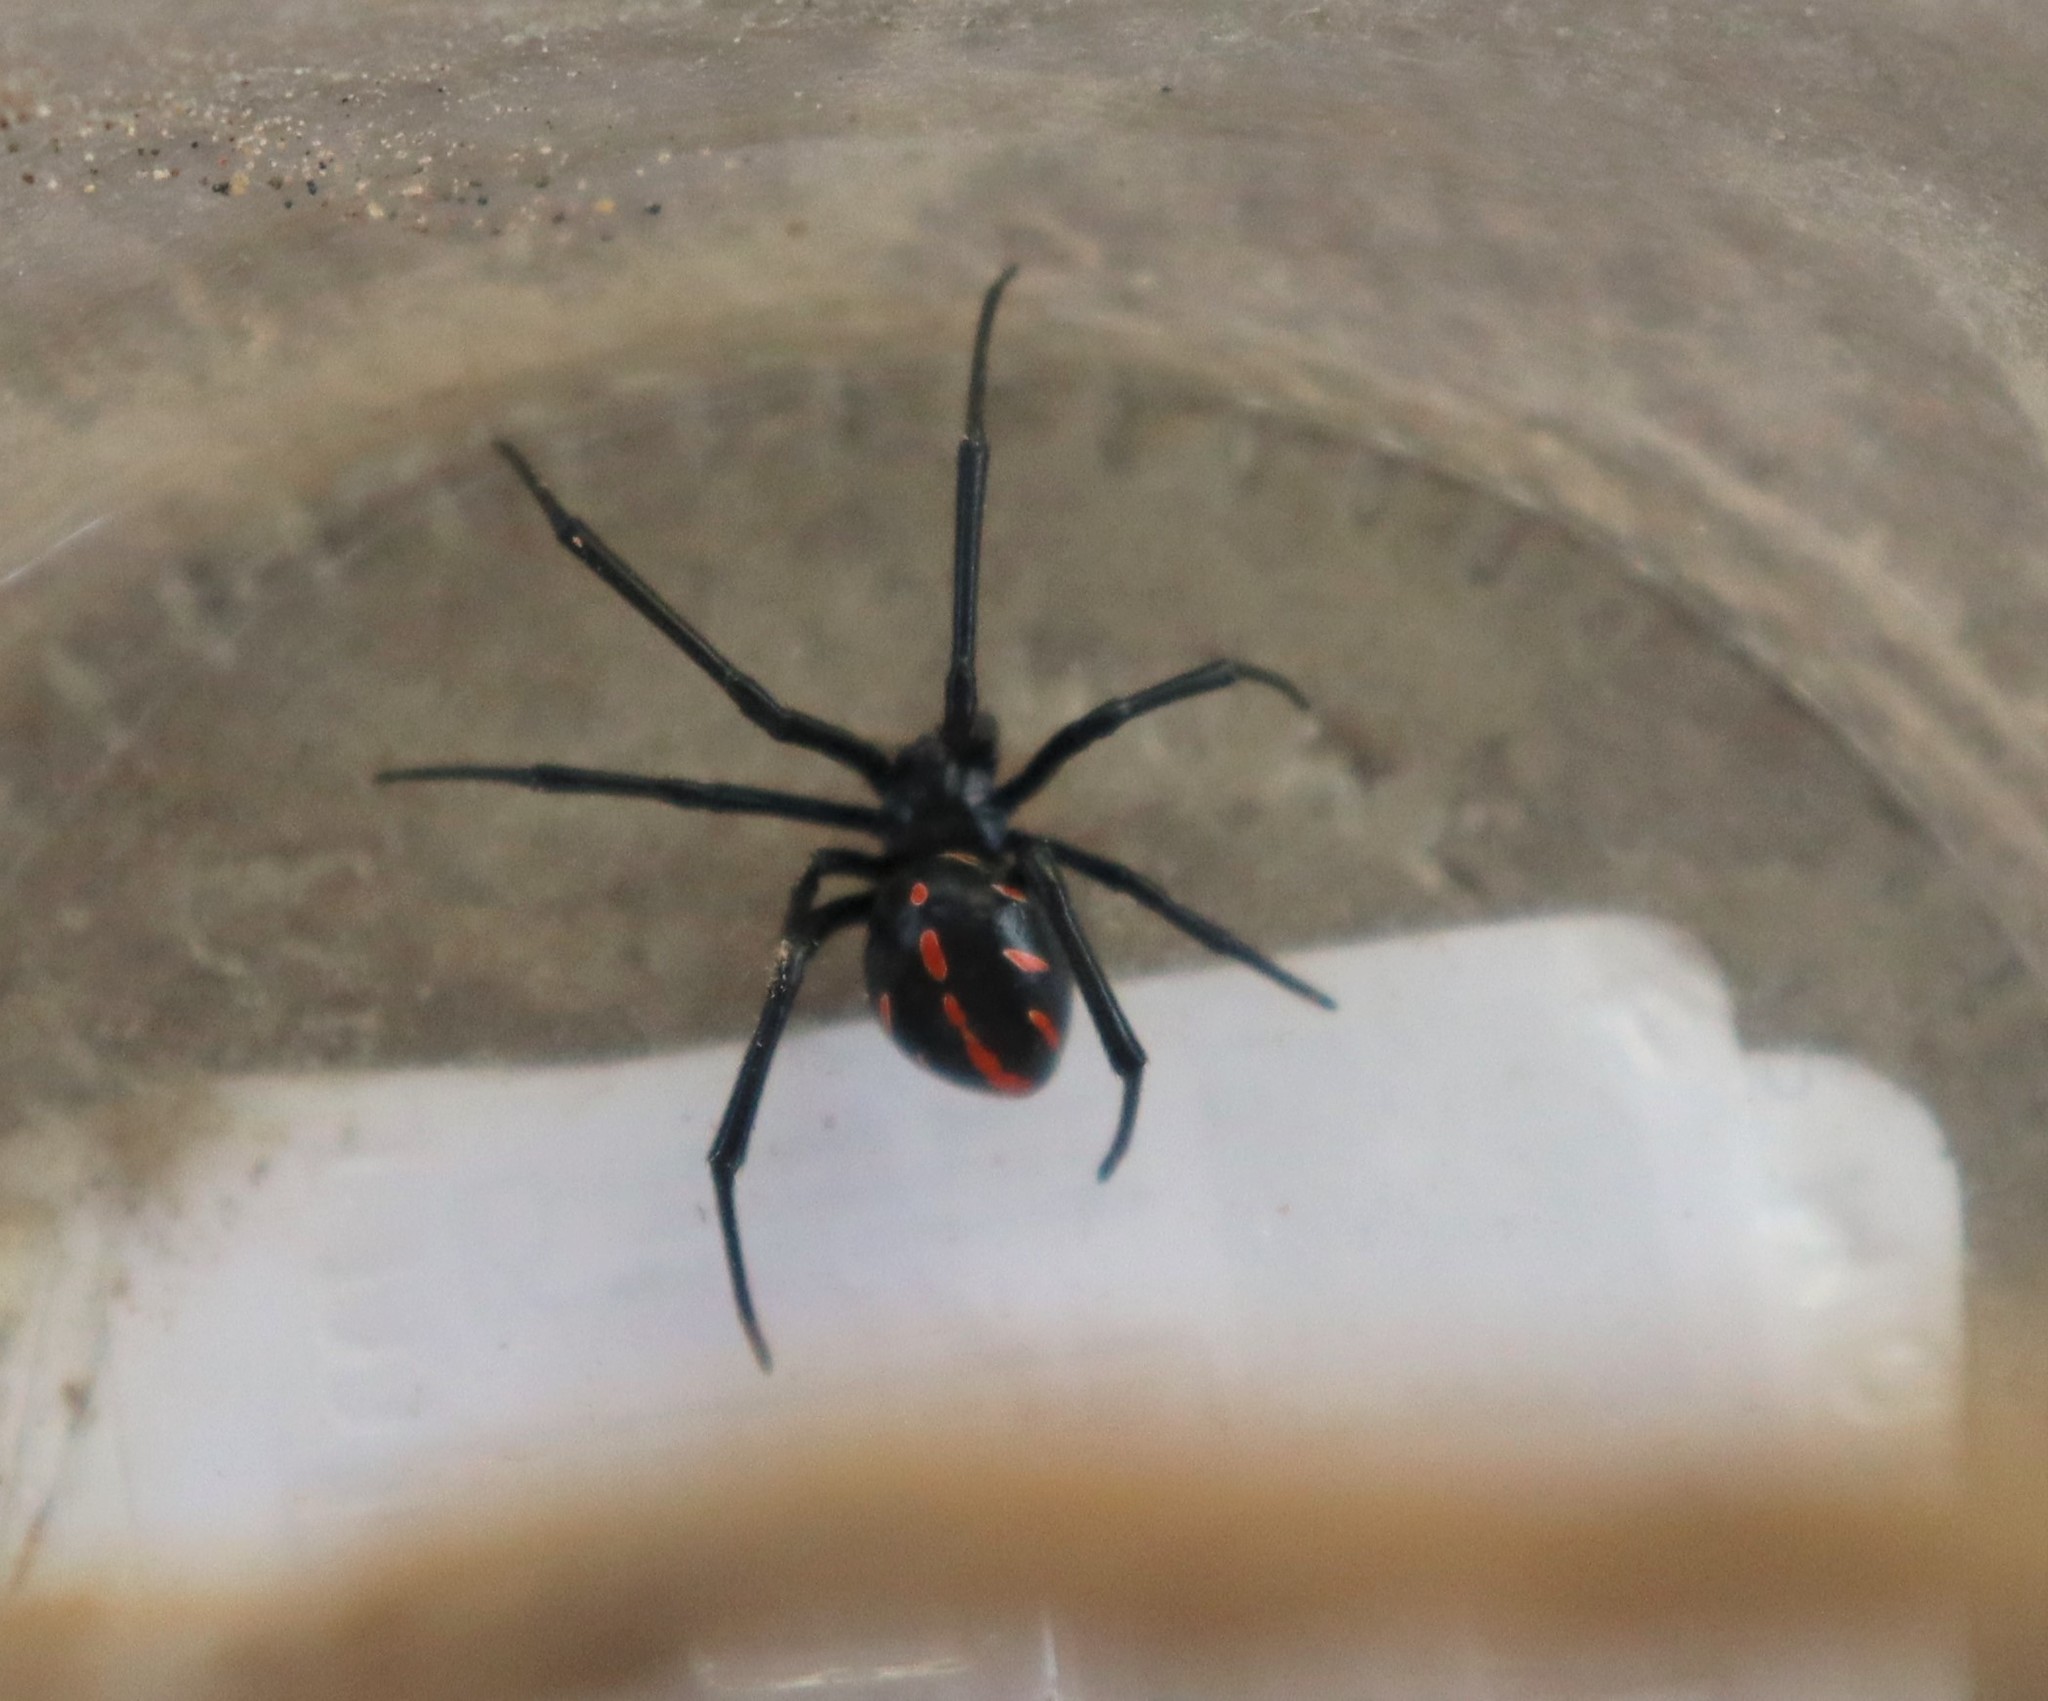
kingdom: Animalia
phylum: Arthropoda
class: Arachnida
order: Araneae
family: Theridiidae
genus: Latrodectus
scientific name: Latrodectus
